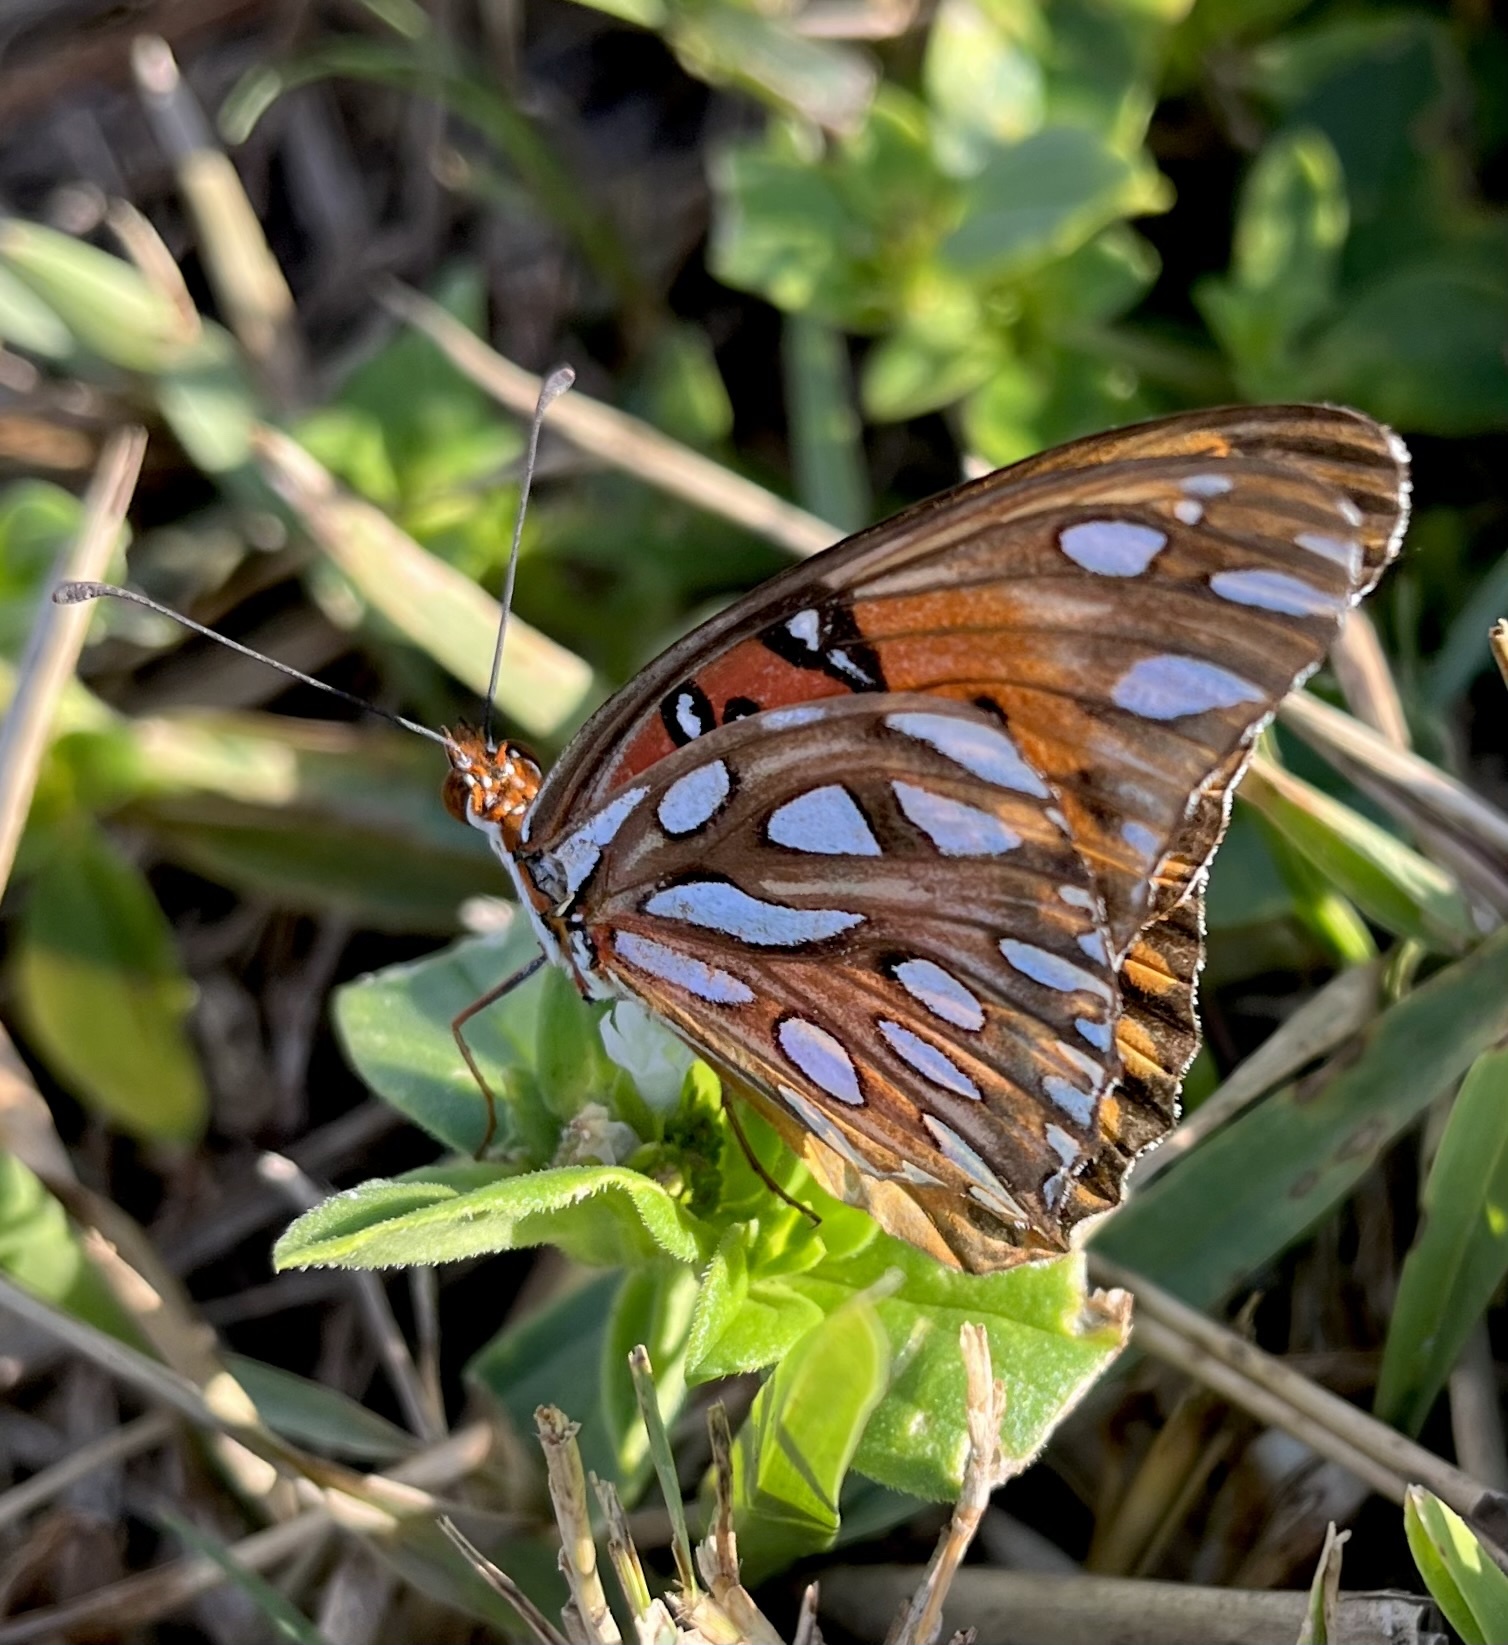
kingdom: Animalia
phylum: Arthropoda
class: Insecta
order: Lepidoptera
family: Nymphalidae
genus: Dione
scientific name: Dione vanillae
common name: Gulf fritillary
